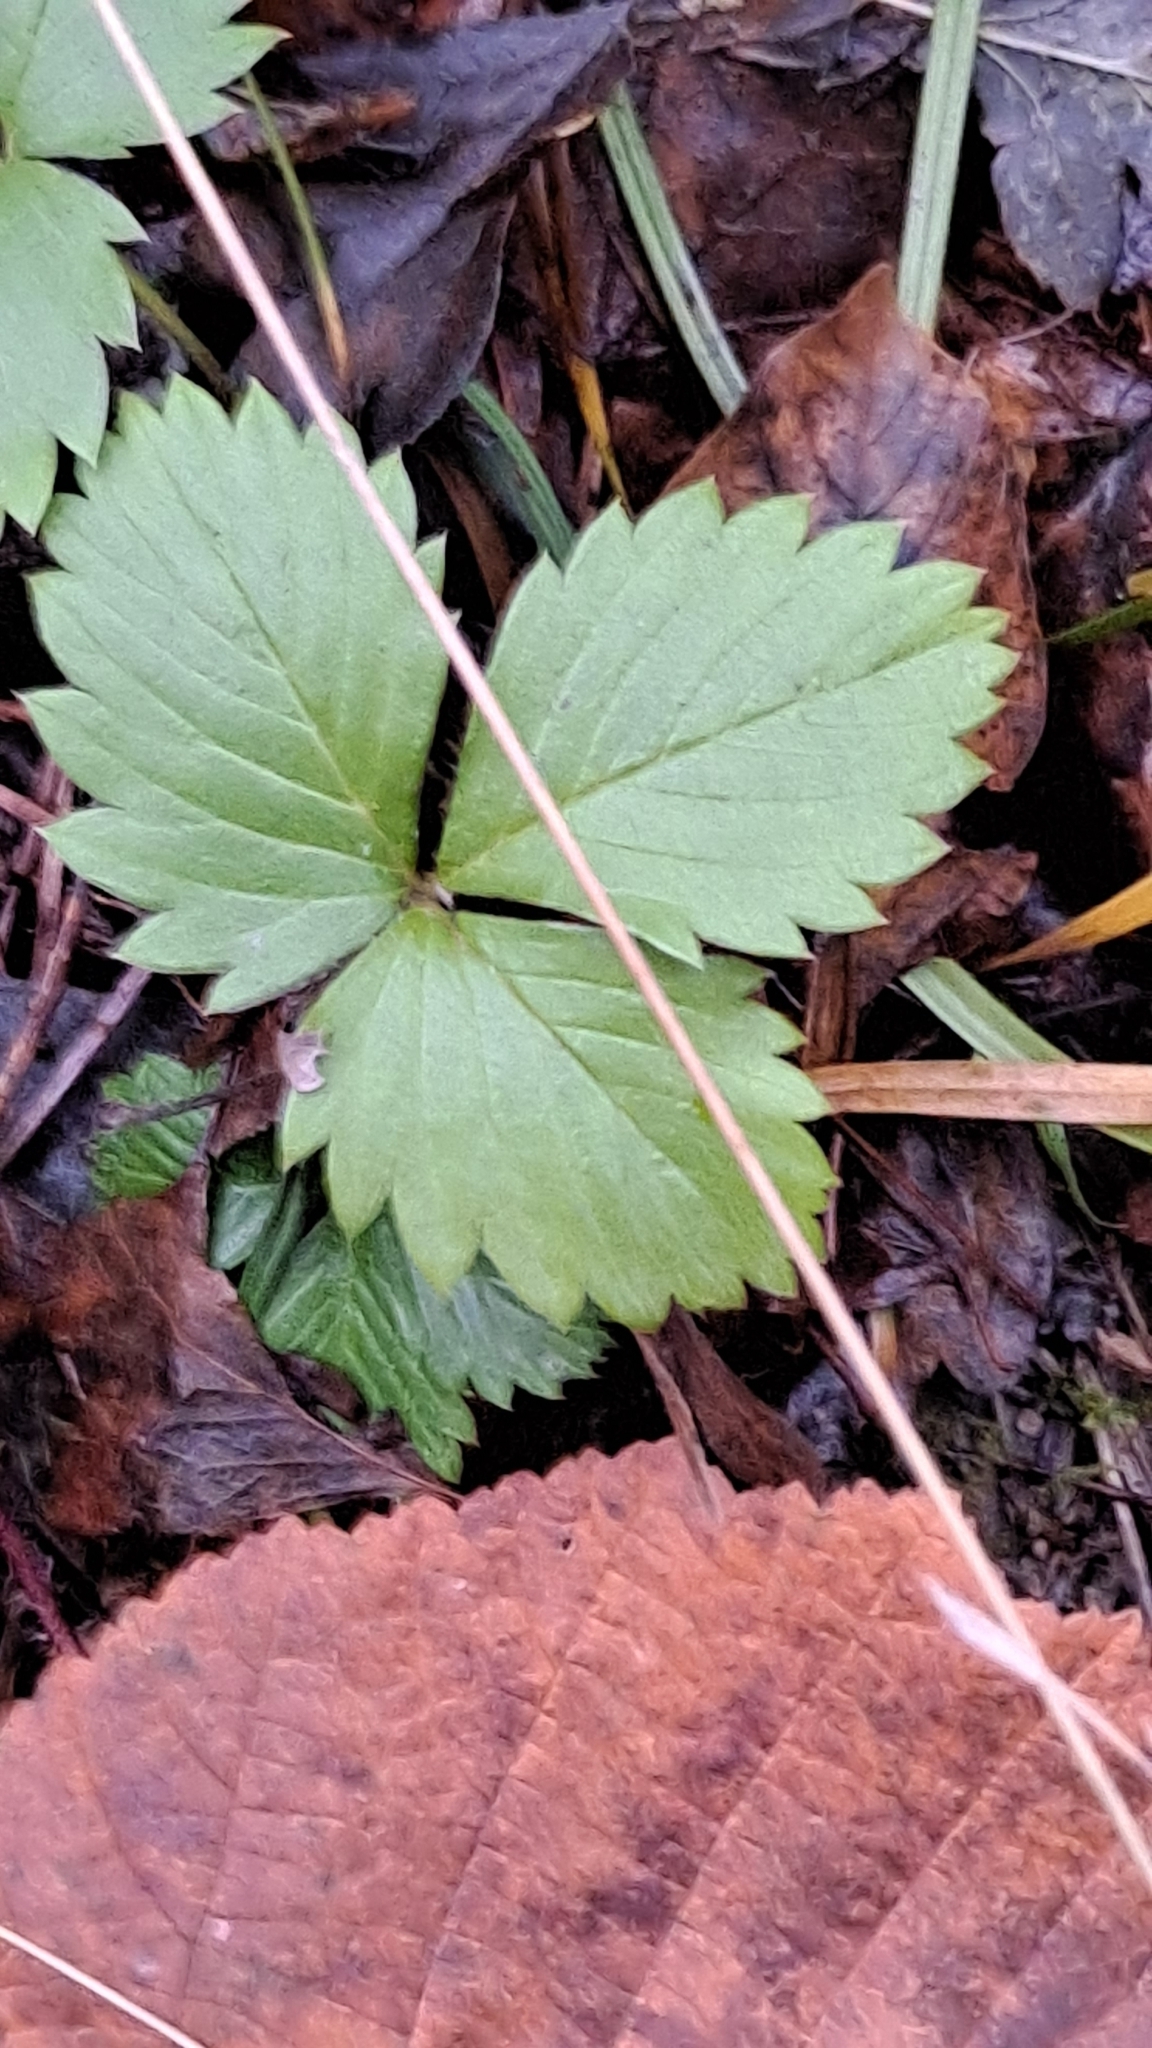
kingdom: Plantae
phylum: Tracheophyta
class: Magnoliopsida
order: Rosales
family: Rosaceae
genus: Fragaria
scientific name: Fragaria vesca
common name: Wild strawberry
